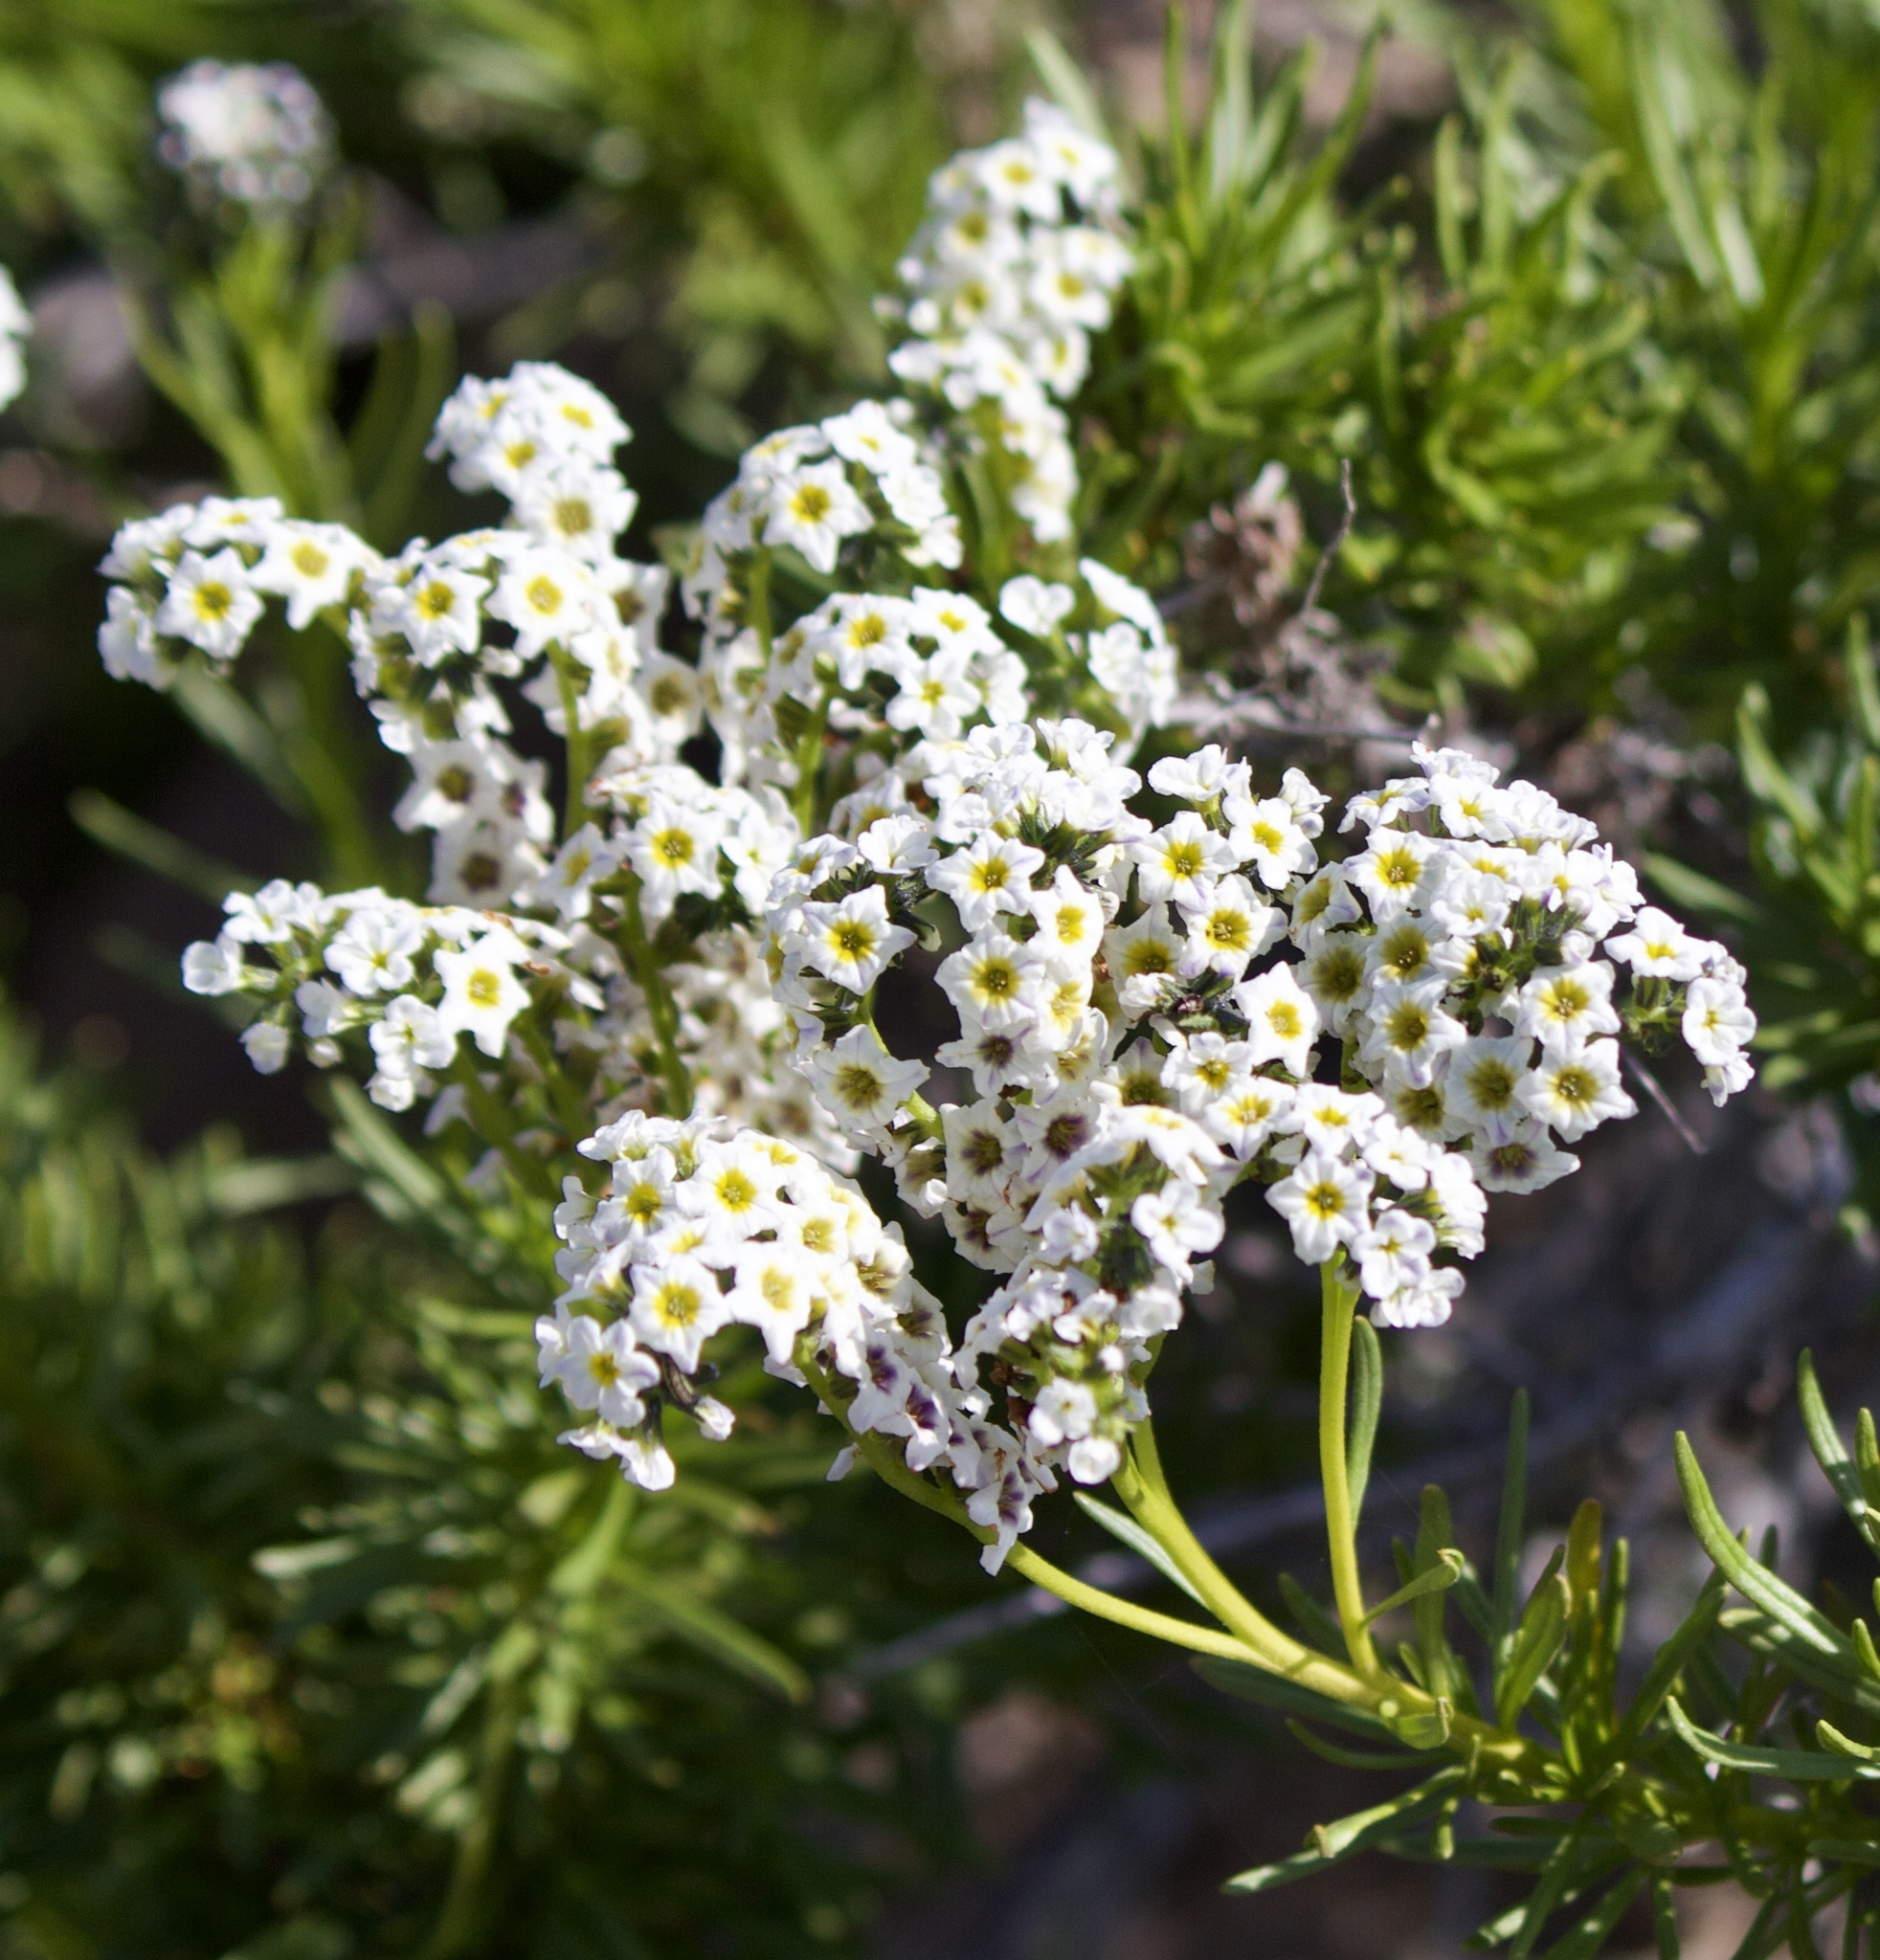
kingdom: Plantae
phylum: Tracheophyta
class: Magnoliopsida
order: Boraginales
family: Heliotropiaceae
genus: Heliotropium
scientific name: Heliotropium stenophyllum
